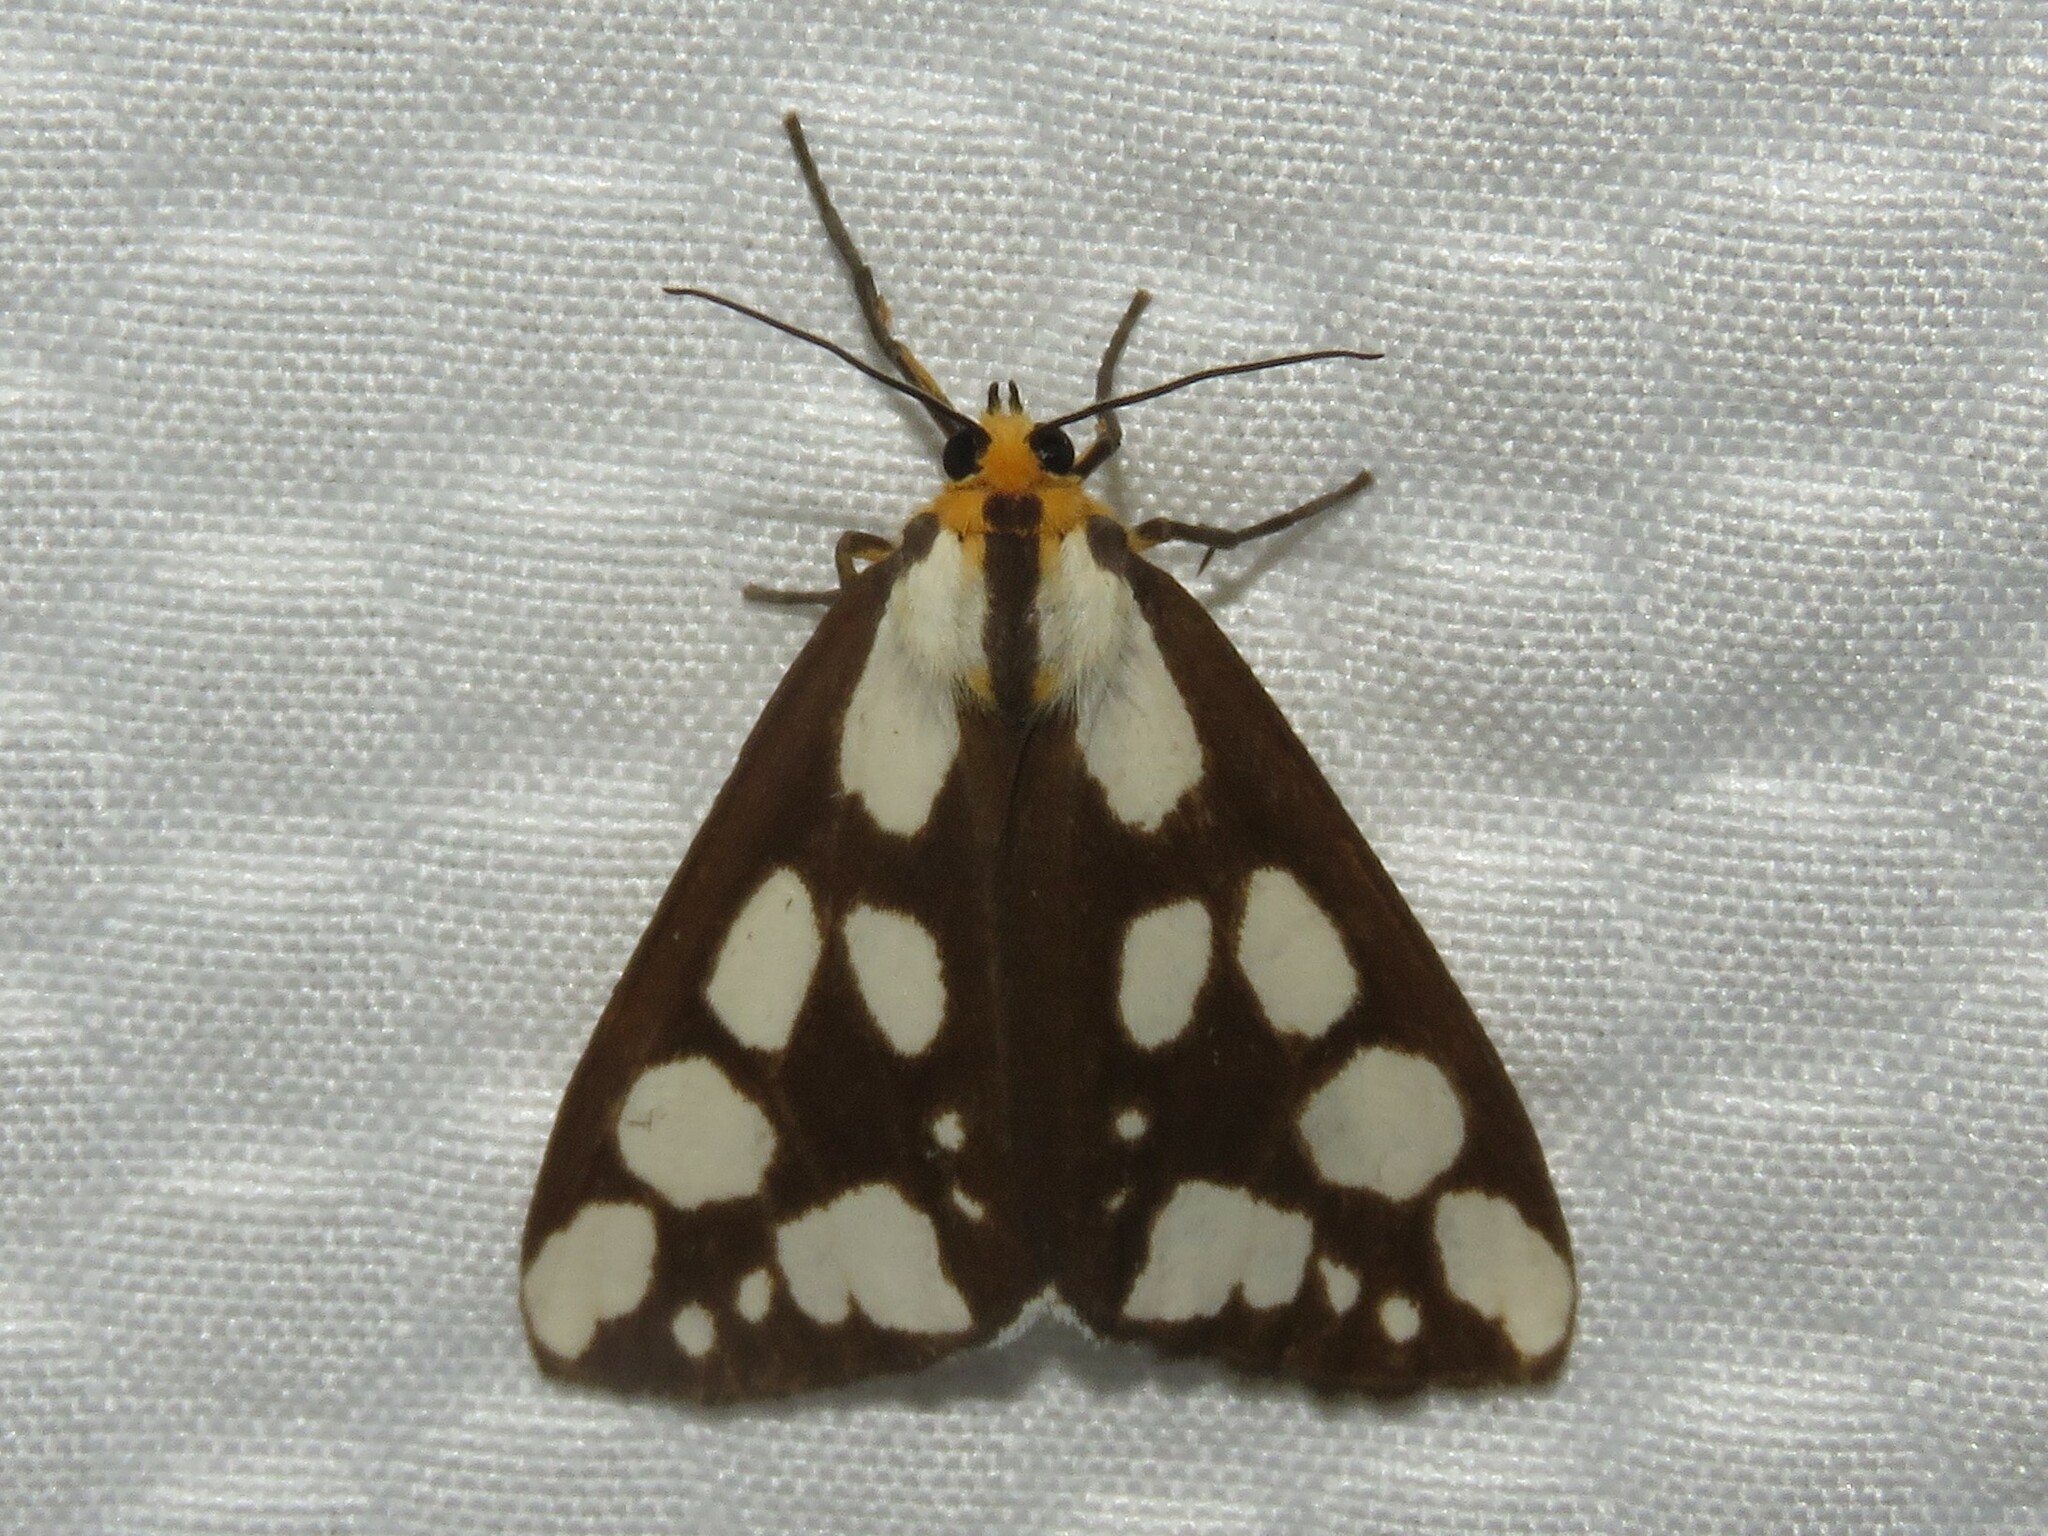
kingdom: Animalia
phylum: Arthropoda
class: Insecta
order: Lepidoptera
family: Erebidae
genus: Haploa
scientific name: Haploa confusa
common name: Confused haploa moth
